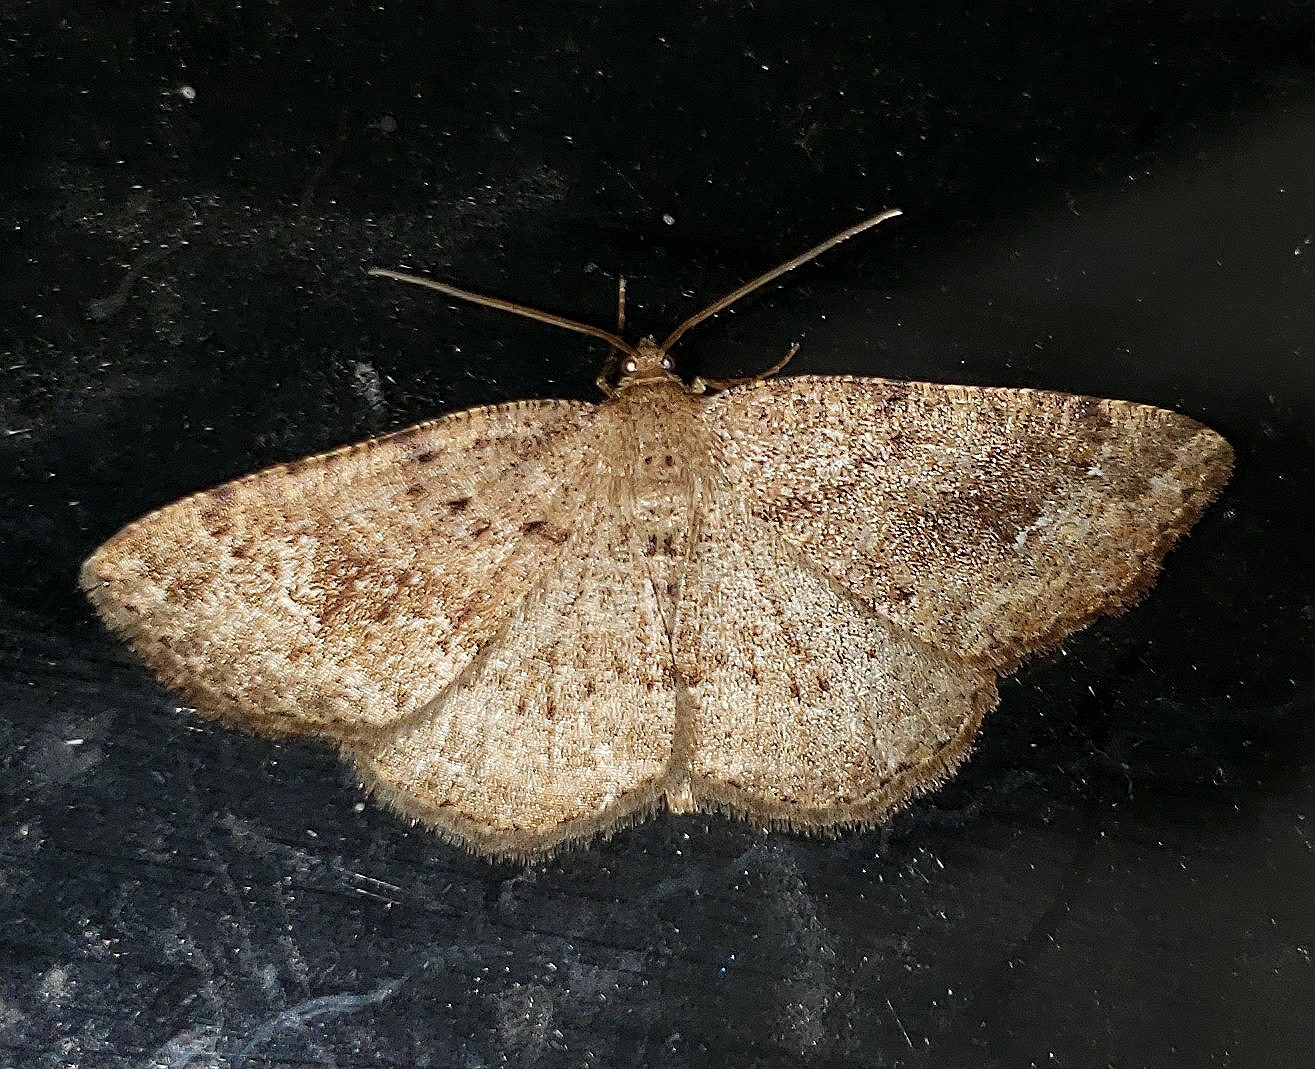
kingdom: Animalia
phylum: Arthropoda
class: Insecta
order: Lepidoptera
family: Geometridae
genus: Homochlodes
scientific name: Homochlodes fritillaria
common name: Pale homochlodes
